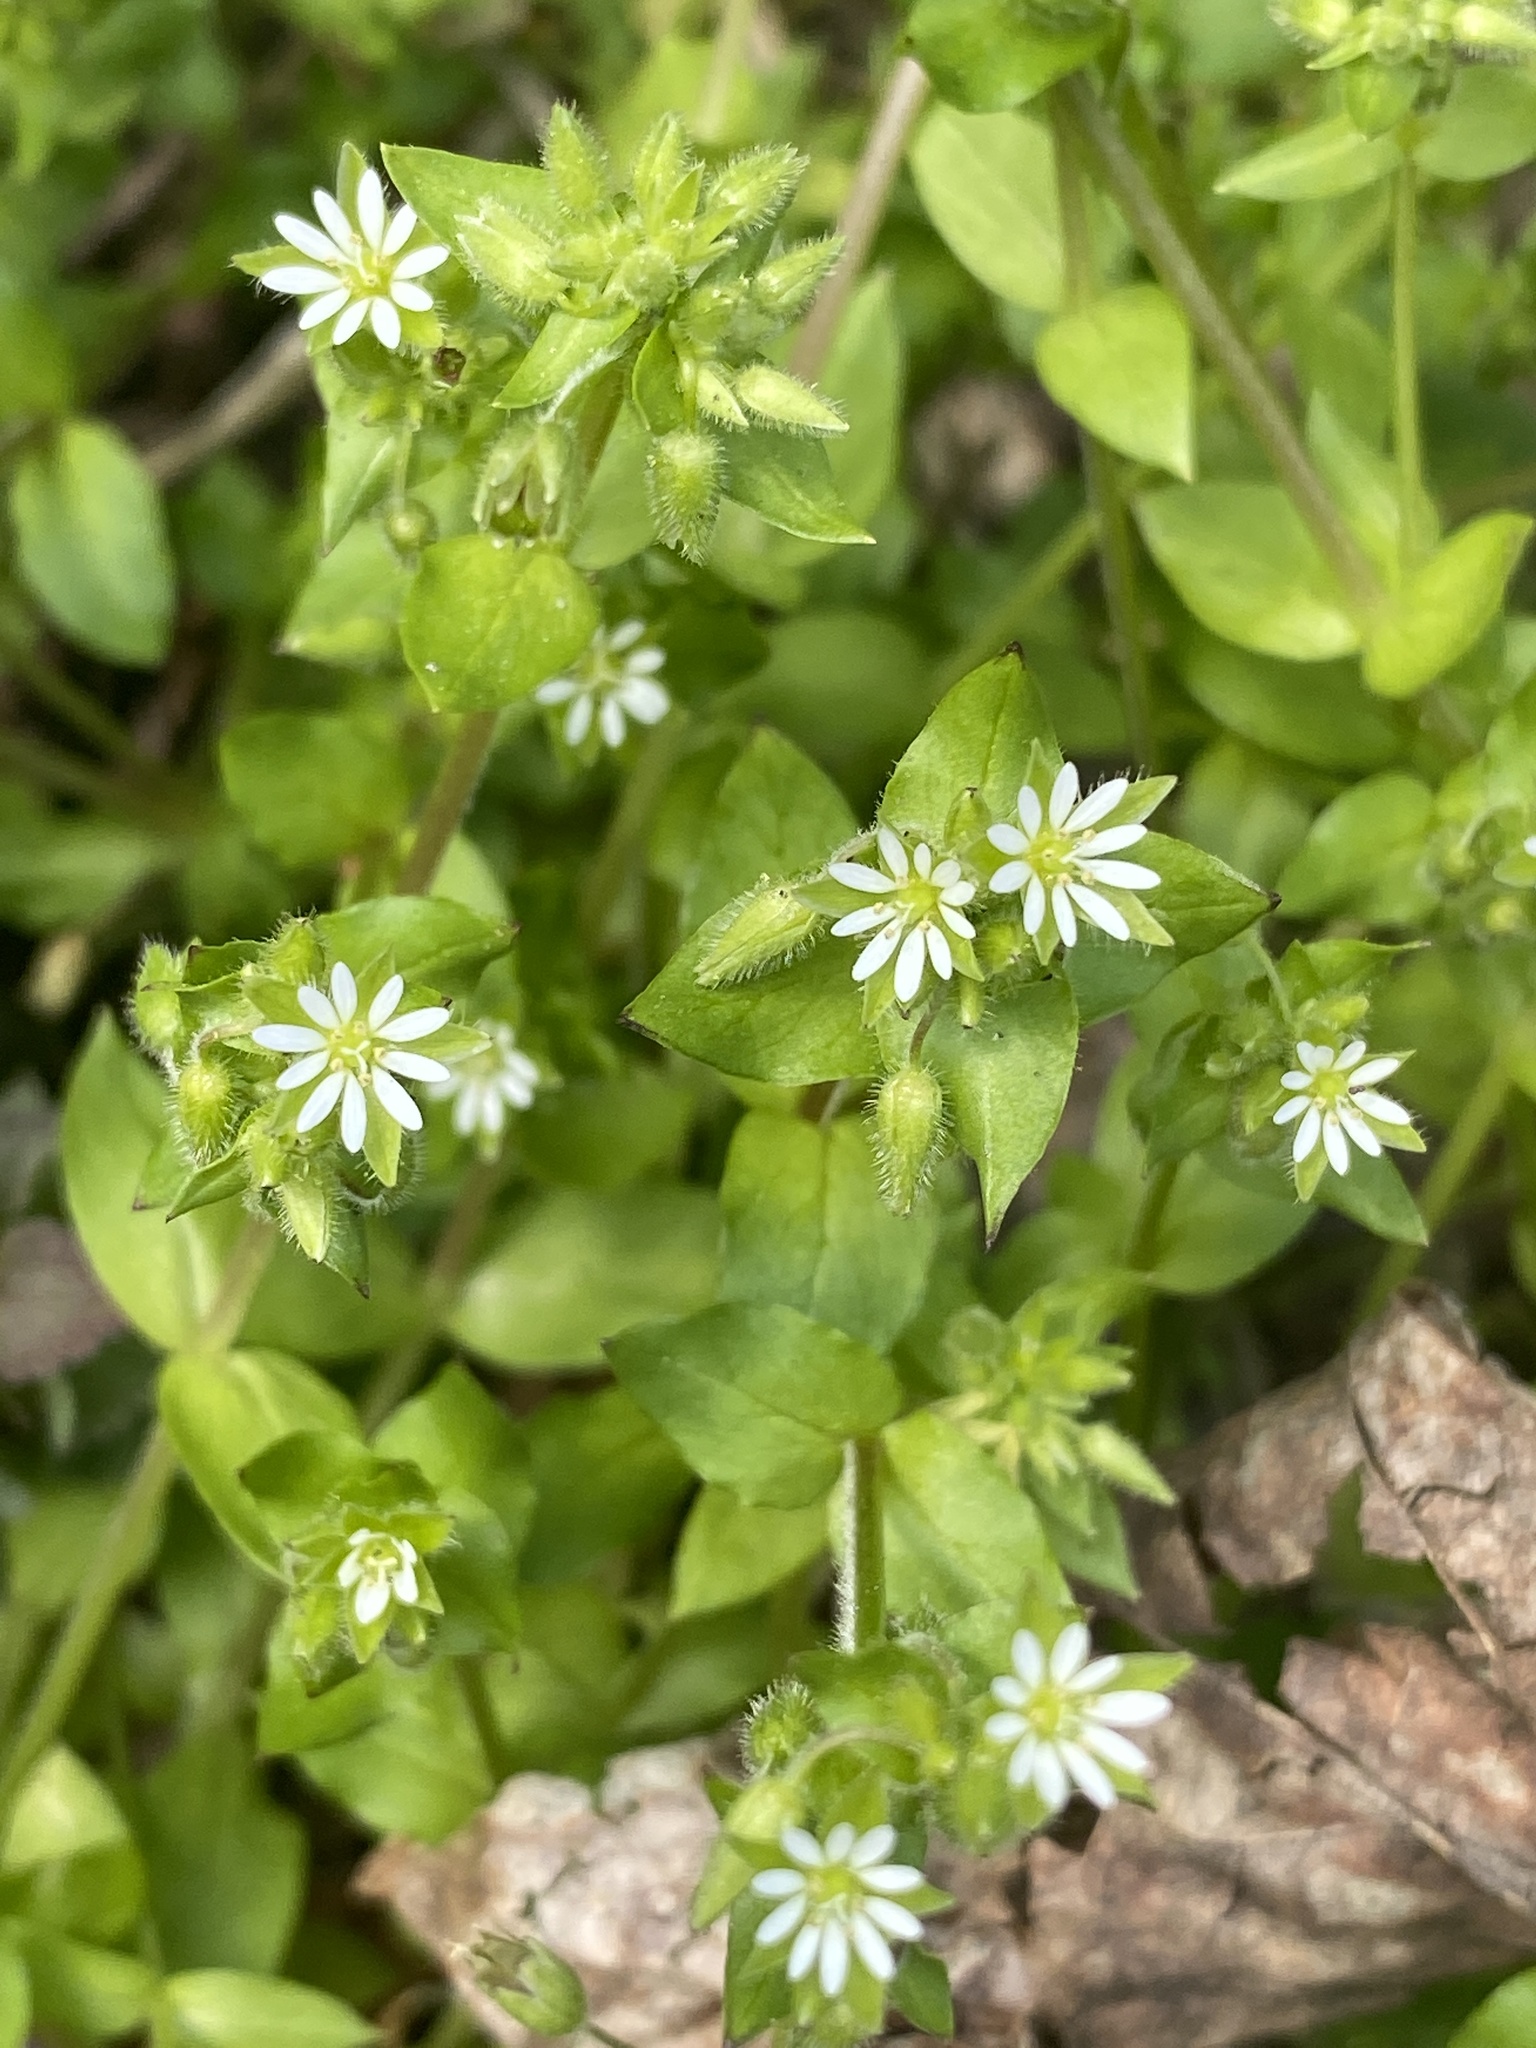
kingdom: Plantae
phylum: Tracheophyta
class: Magnoliopsida
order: Caryophyllales
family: Caryophyllaceae
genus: Stellaria
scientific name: Stellaria media
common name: Common chickweed
